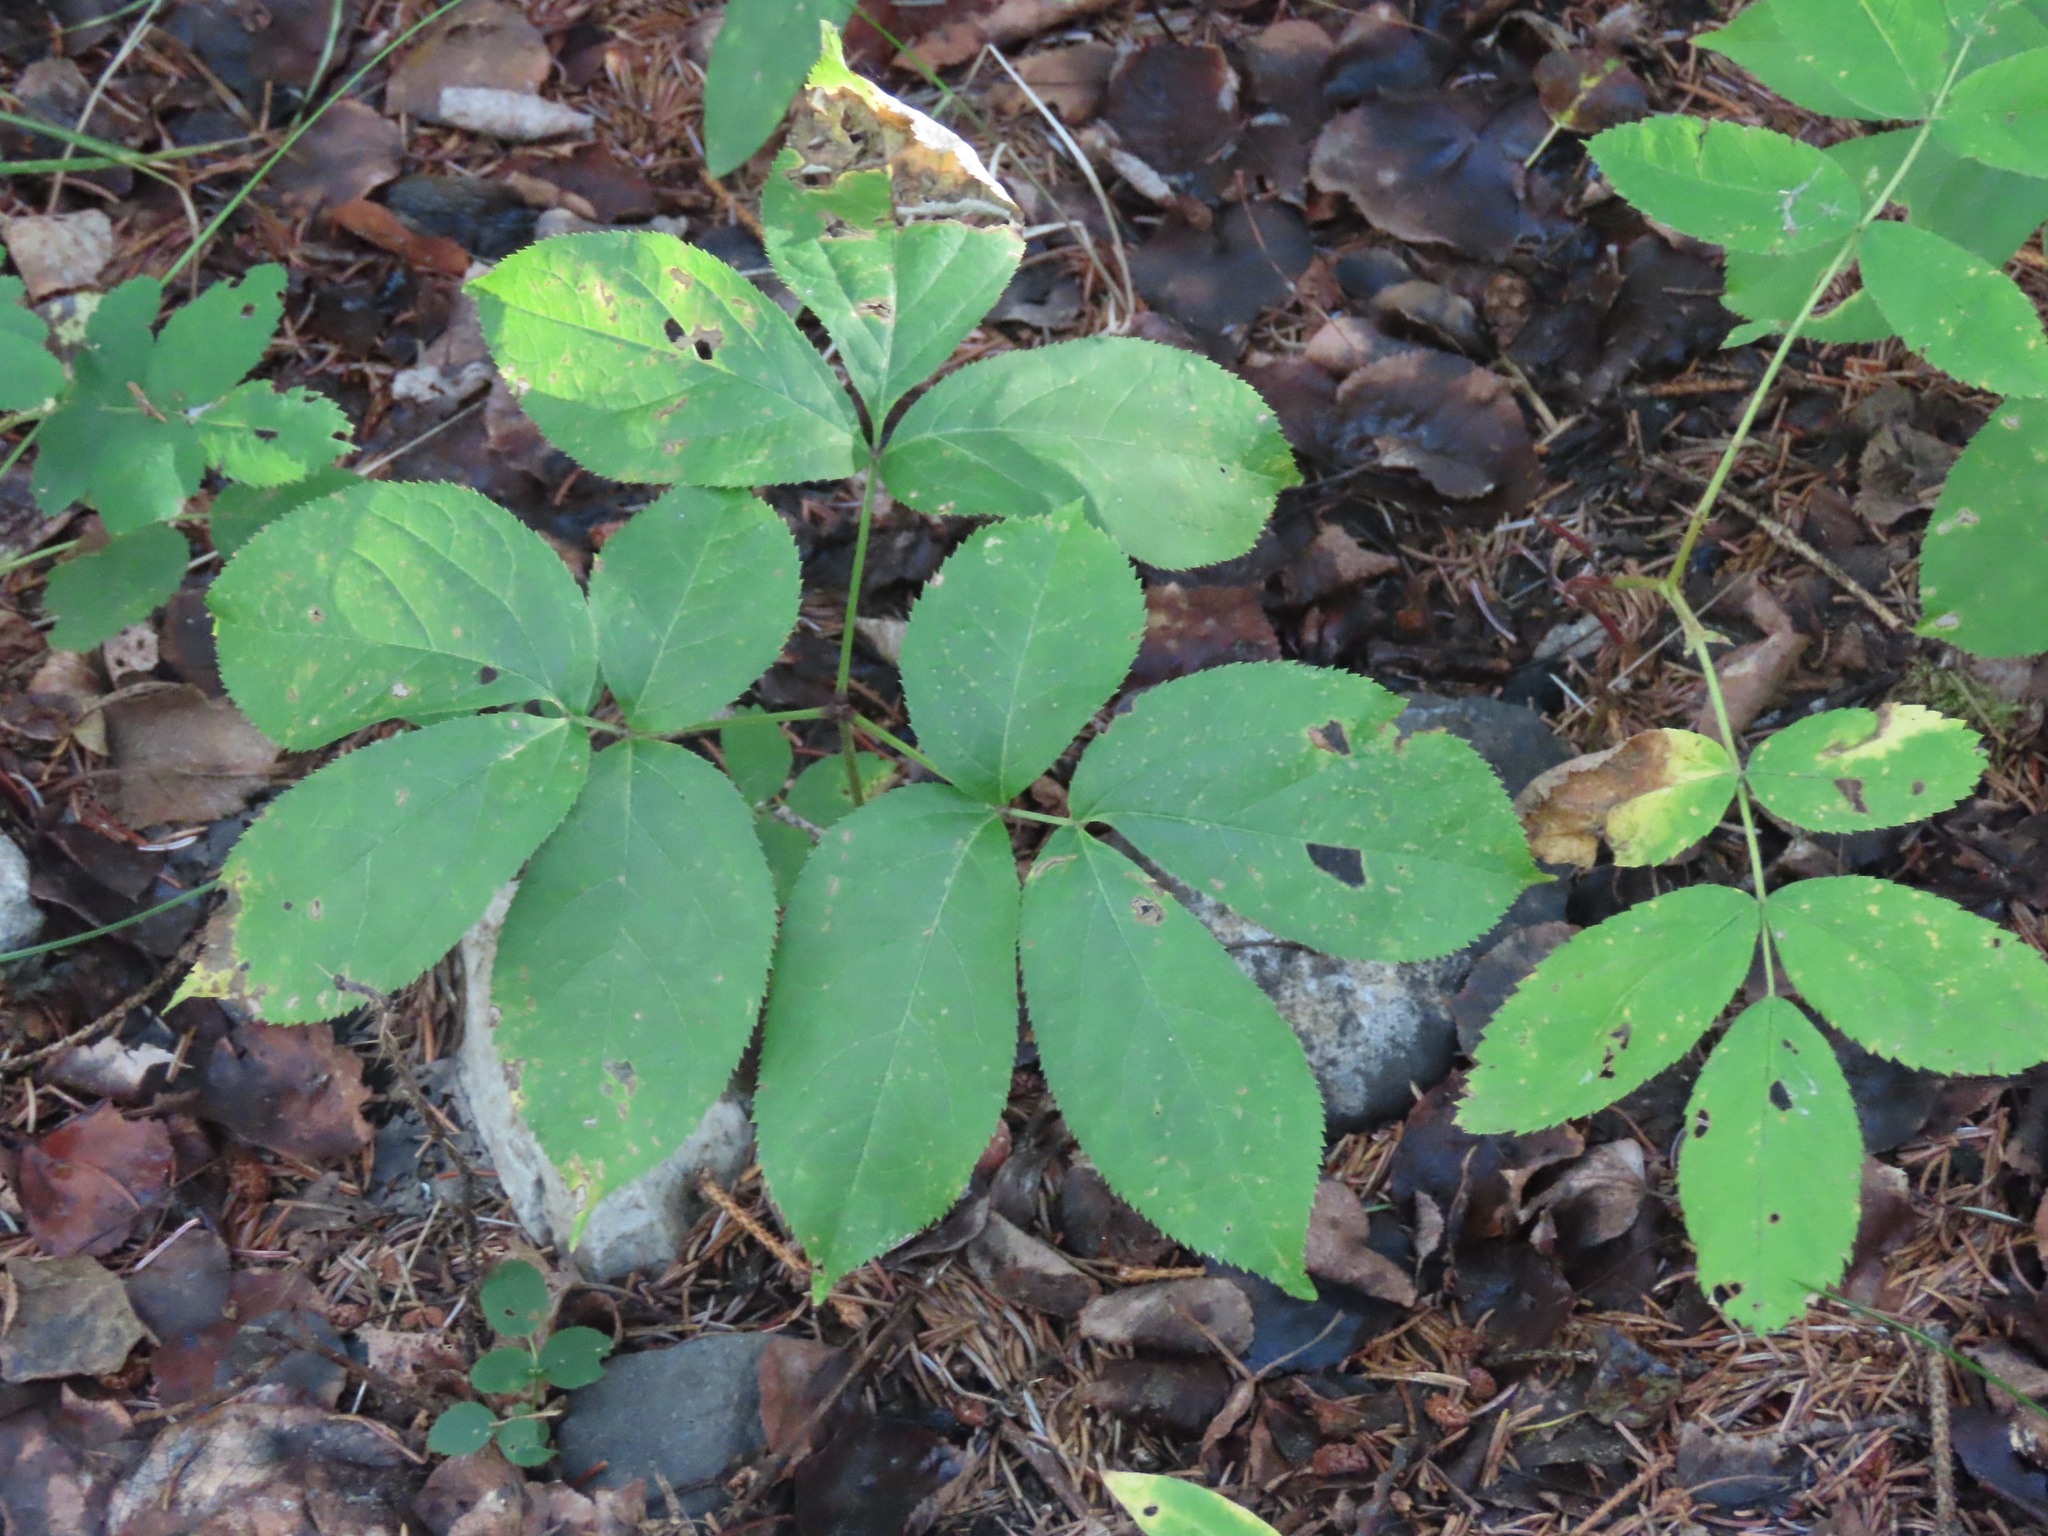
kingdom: Plantae
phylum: Tracheophyta
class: Magnoliopsida
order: Apiales
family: Araliaceae
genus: Aralia
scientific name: Aralia nudicaulis
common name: Wild sarsaparilla
